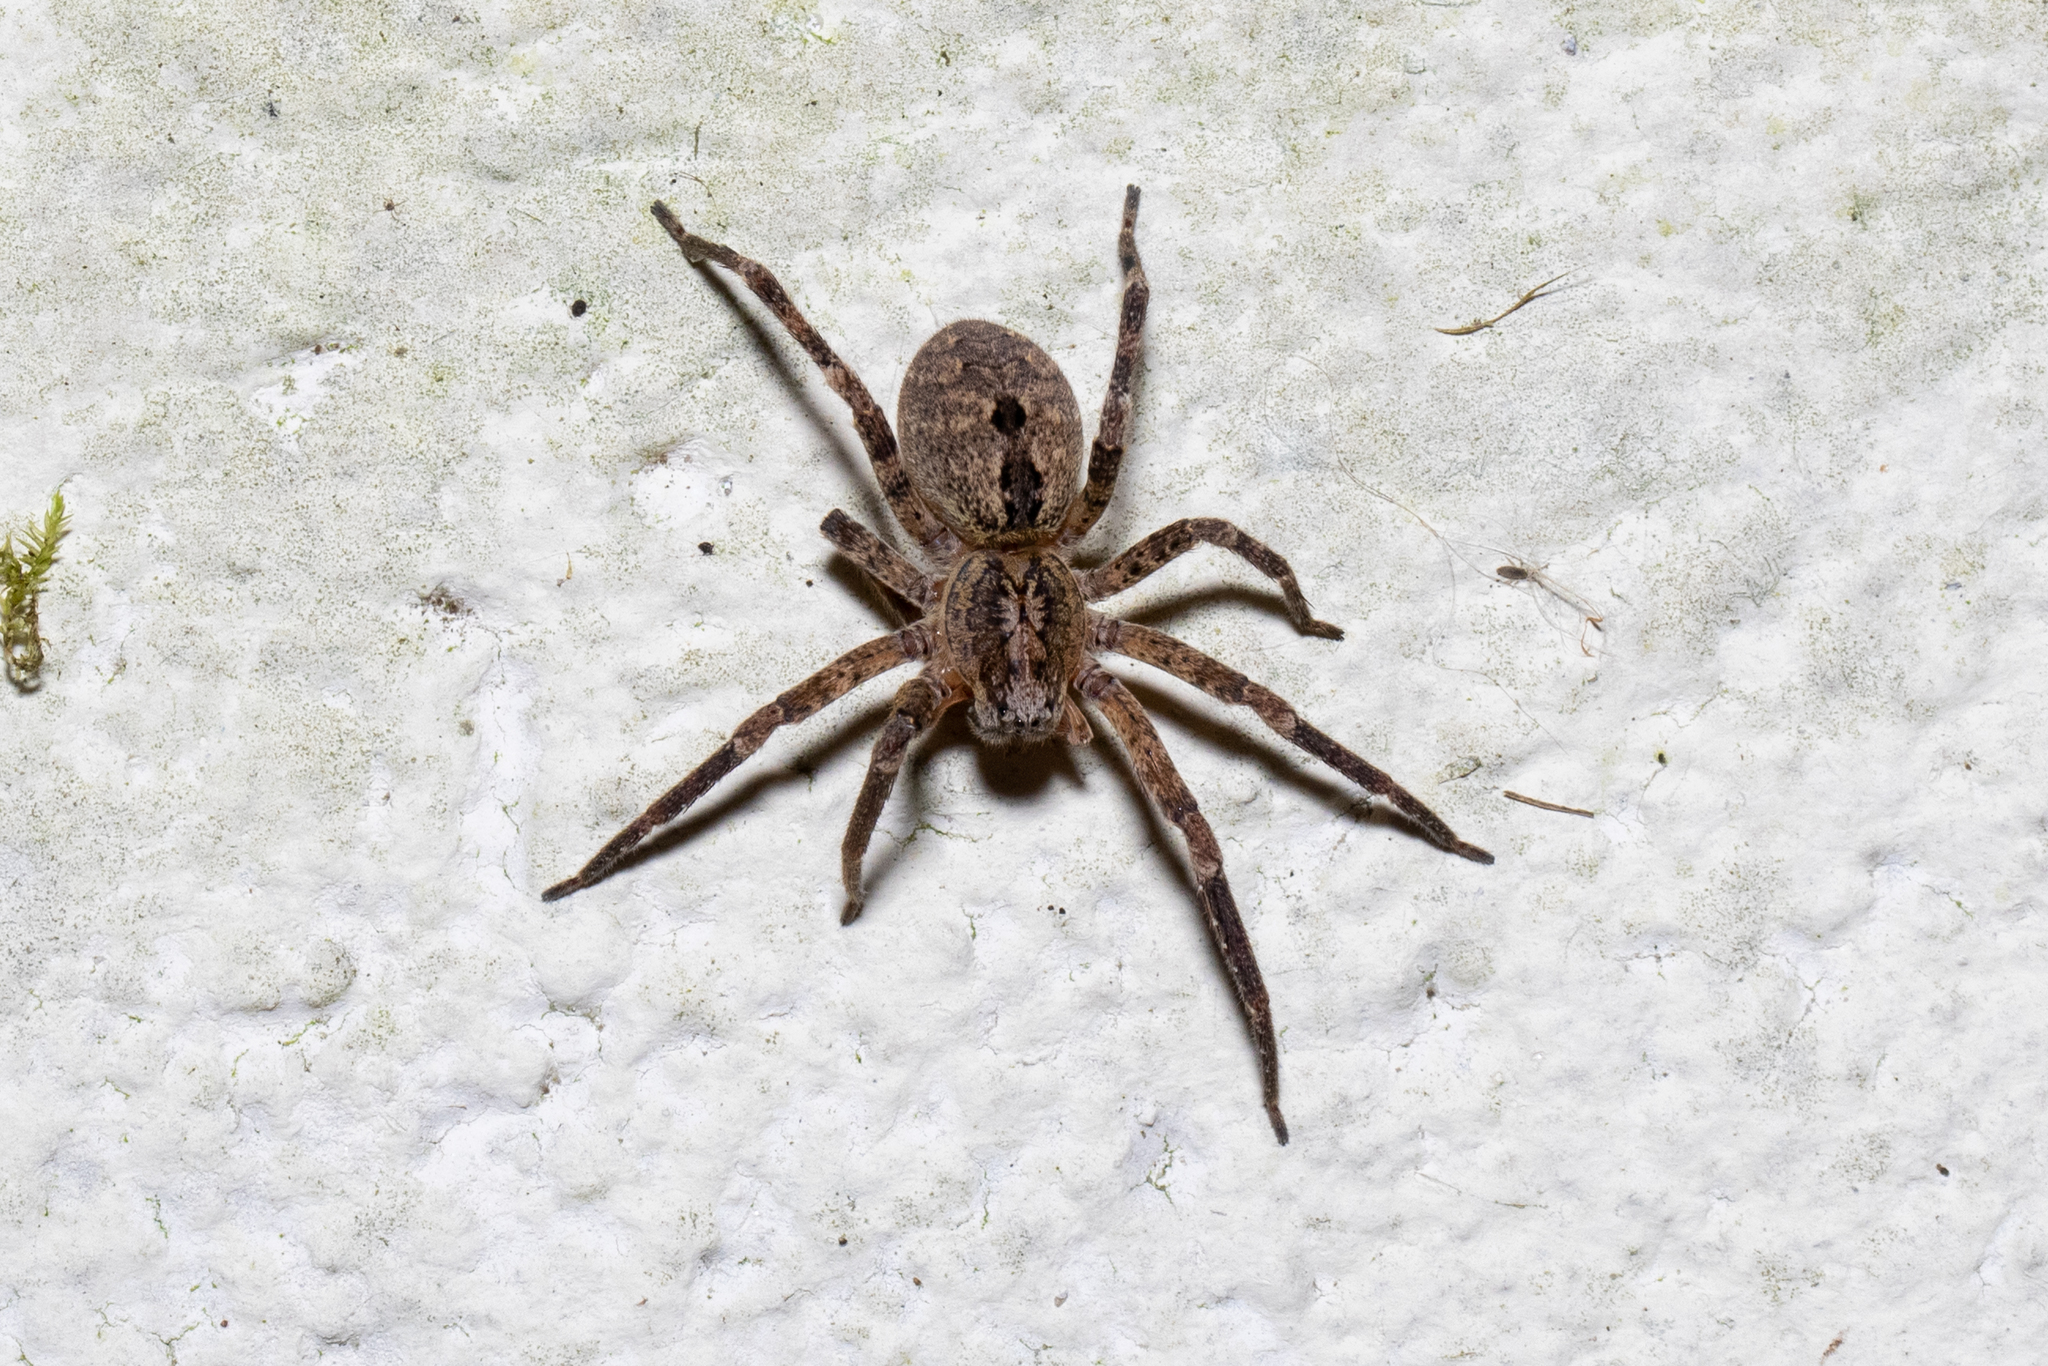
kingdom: Animalia
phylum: Arthropoda
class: Arachnida
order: Araneae
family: Zoropsidae
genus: Zoropsis
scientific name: Zoropsis spinimana
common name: Zoropsid spider
